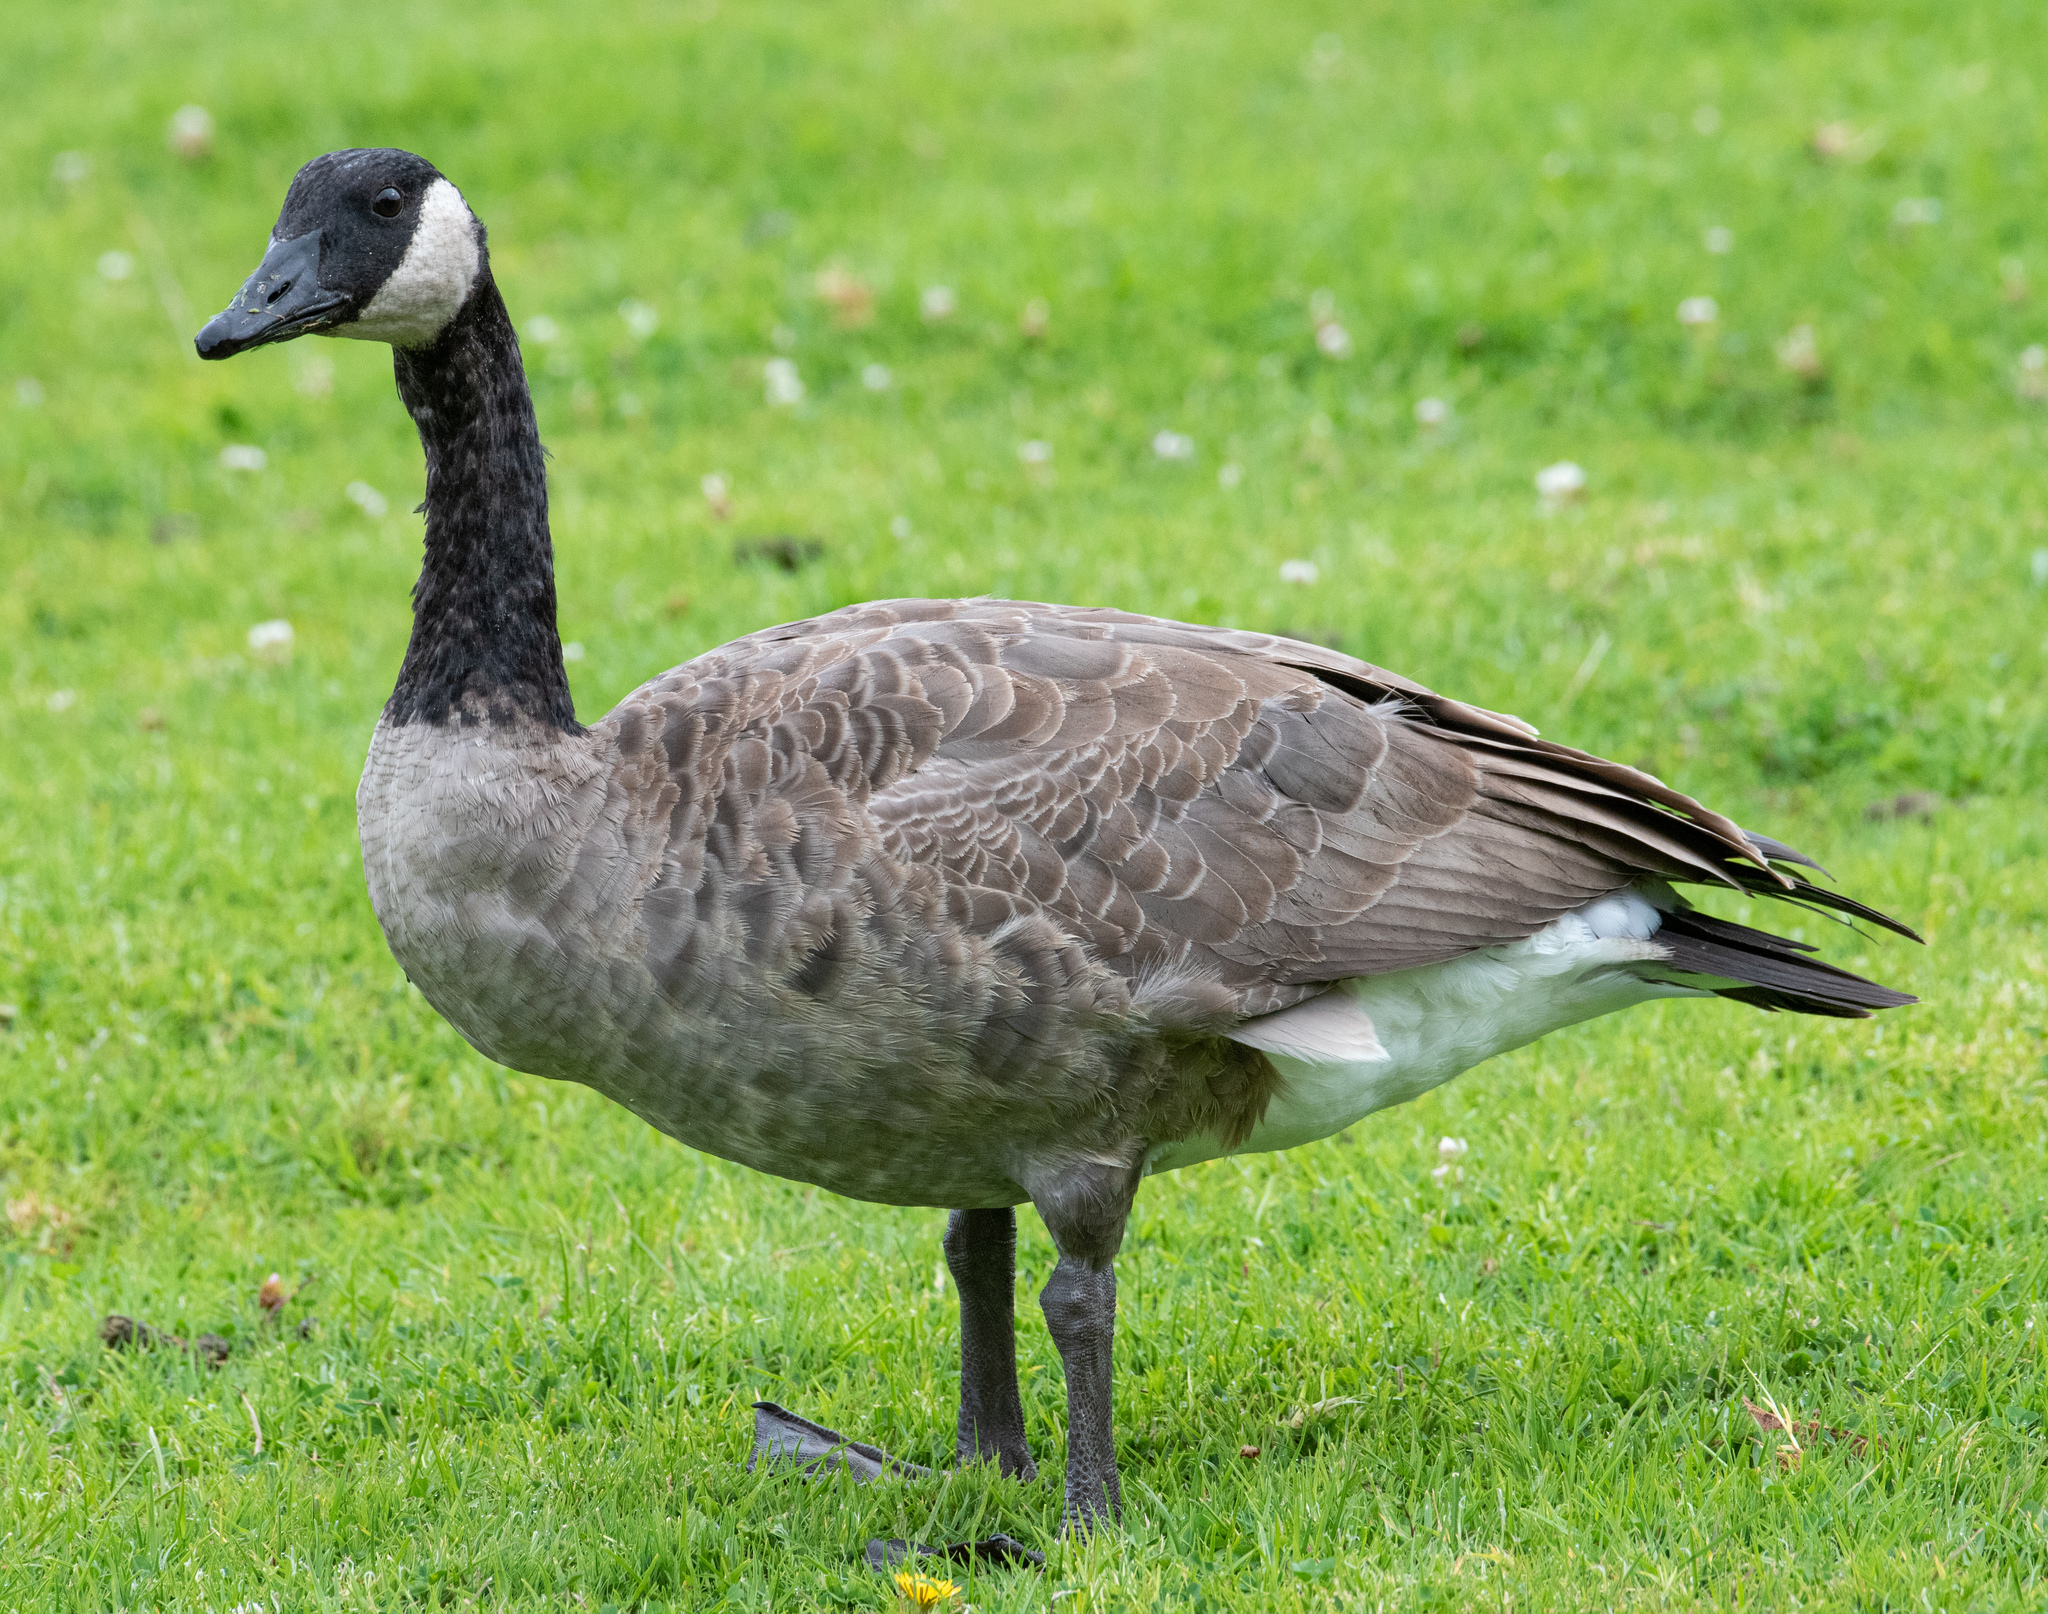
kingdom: Animalia
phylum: Chordata
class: Aves
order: Anseriformes
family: Anatidae
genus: Branta
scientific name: Branta canadensis
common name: Canada goose
